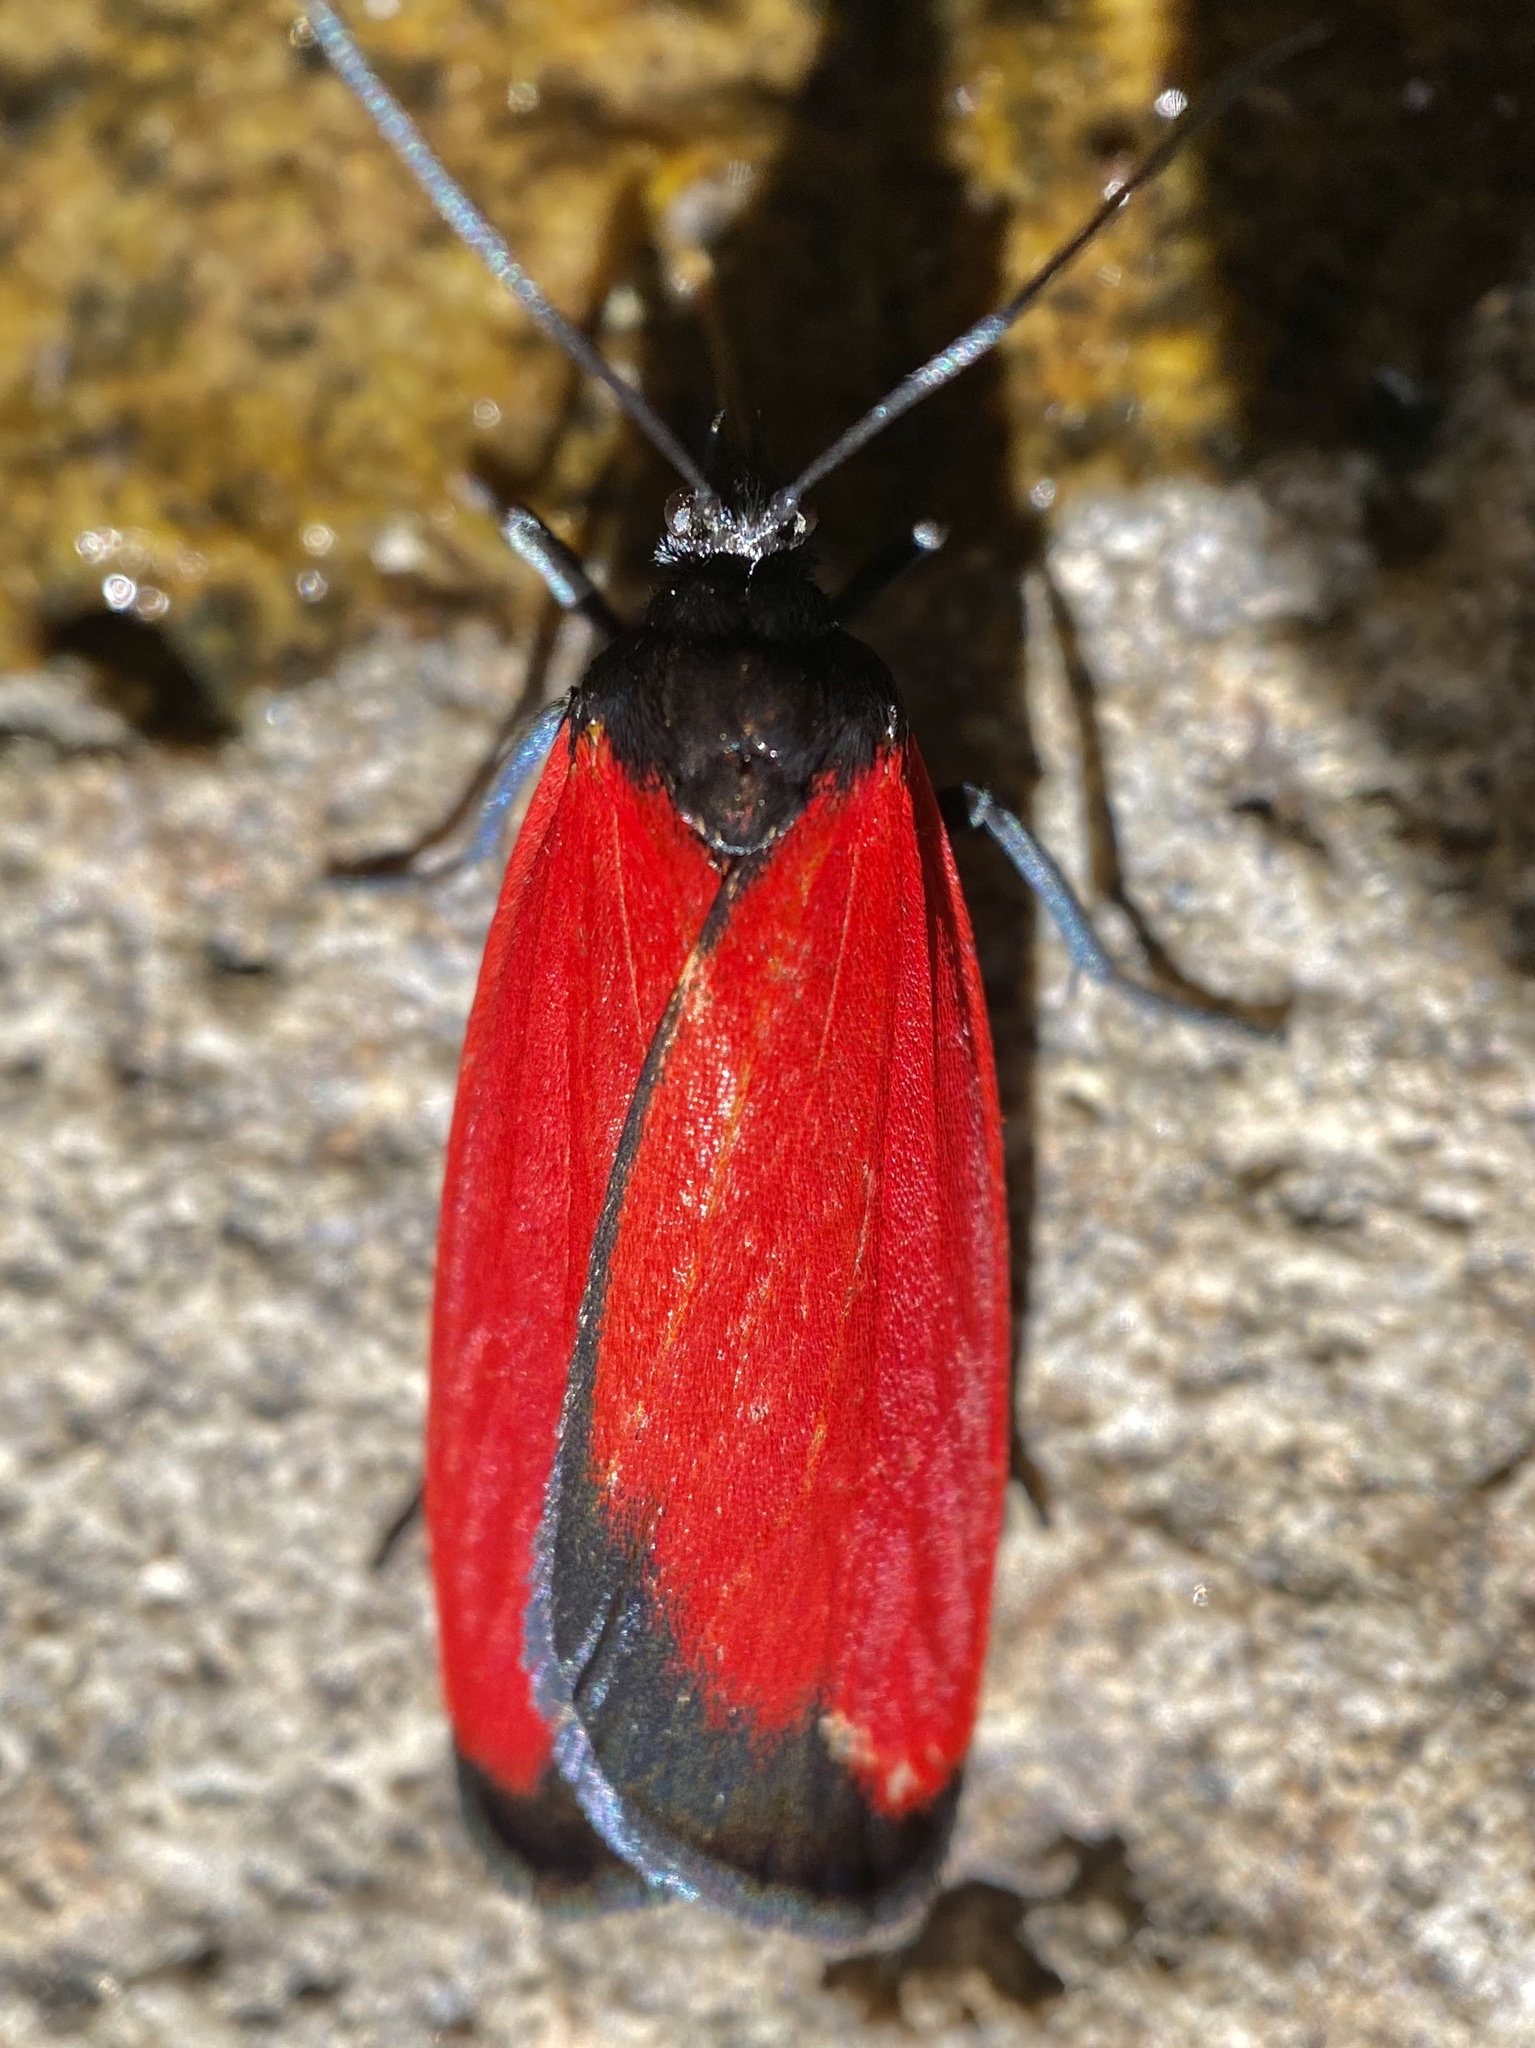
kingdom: Animalia
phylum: Arthropoda
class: Insecta
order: Lepidoptera
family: Erebidae
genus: Ptychoglene
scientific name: Ptychoglene phrada
